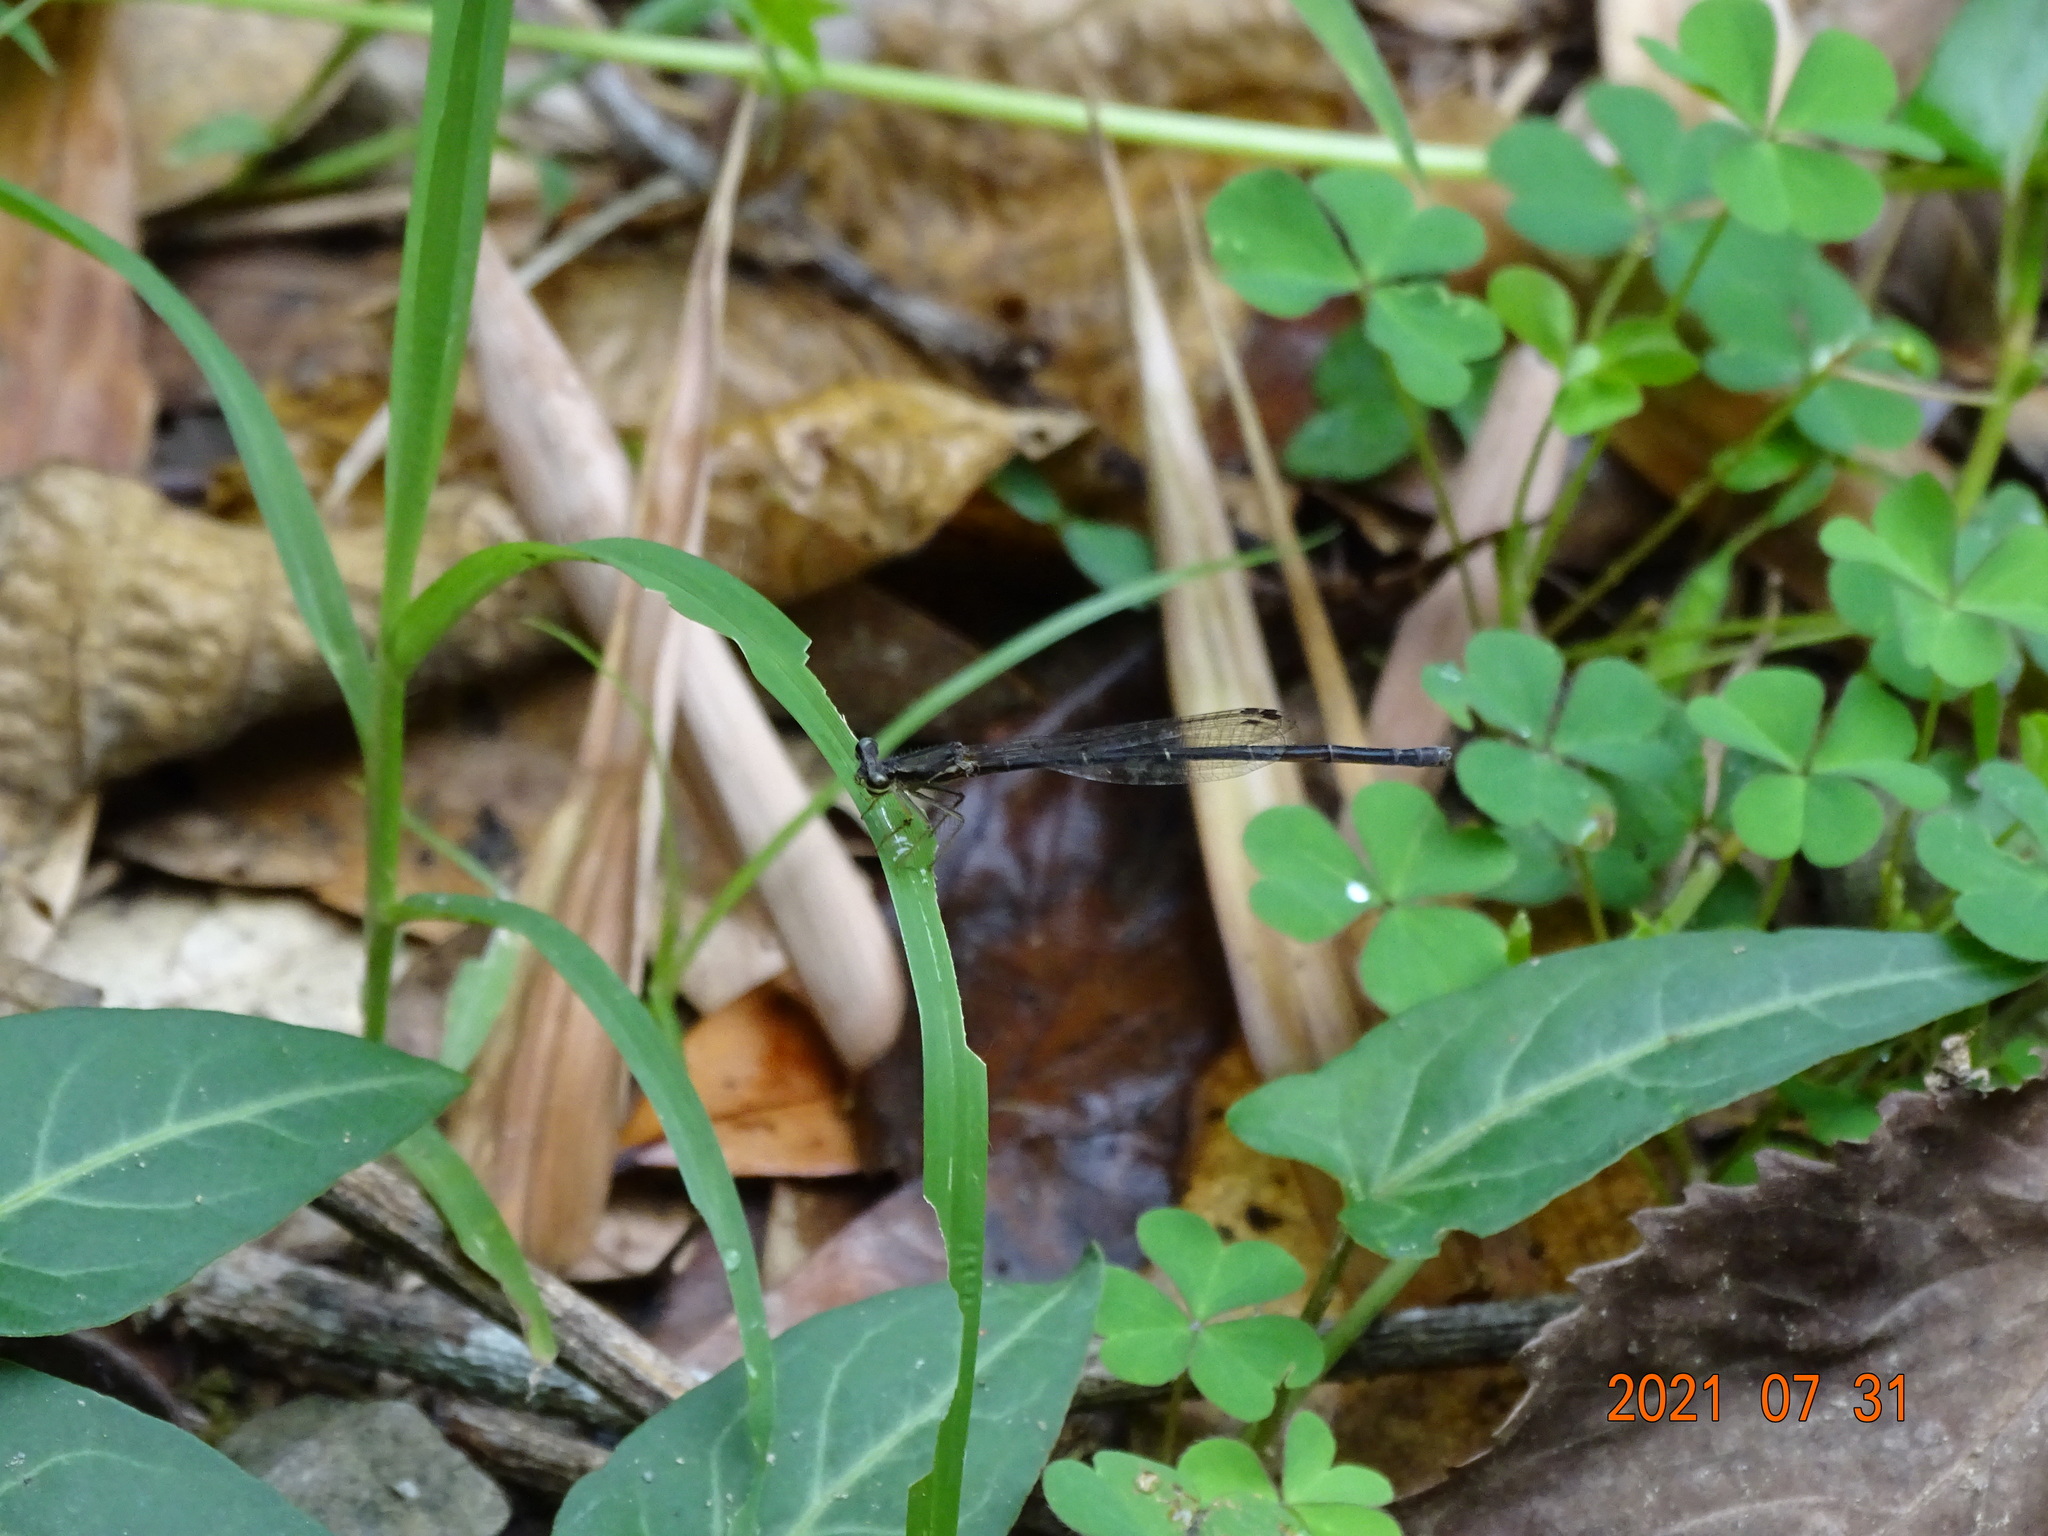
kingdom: Animalia
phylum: Arthropoda
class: Insecta
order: Odonata
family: Platycnemididae
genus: Copera
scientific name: Copera marginipes
